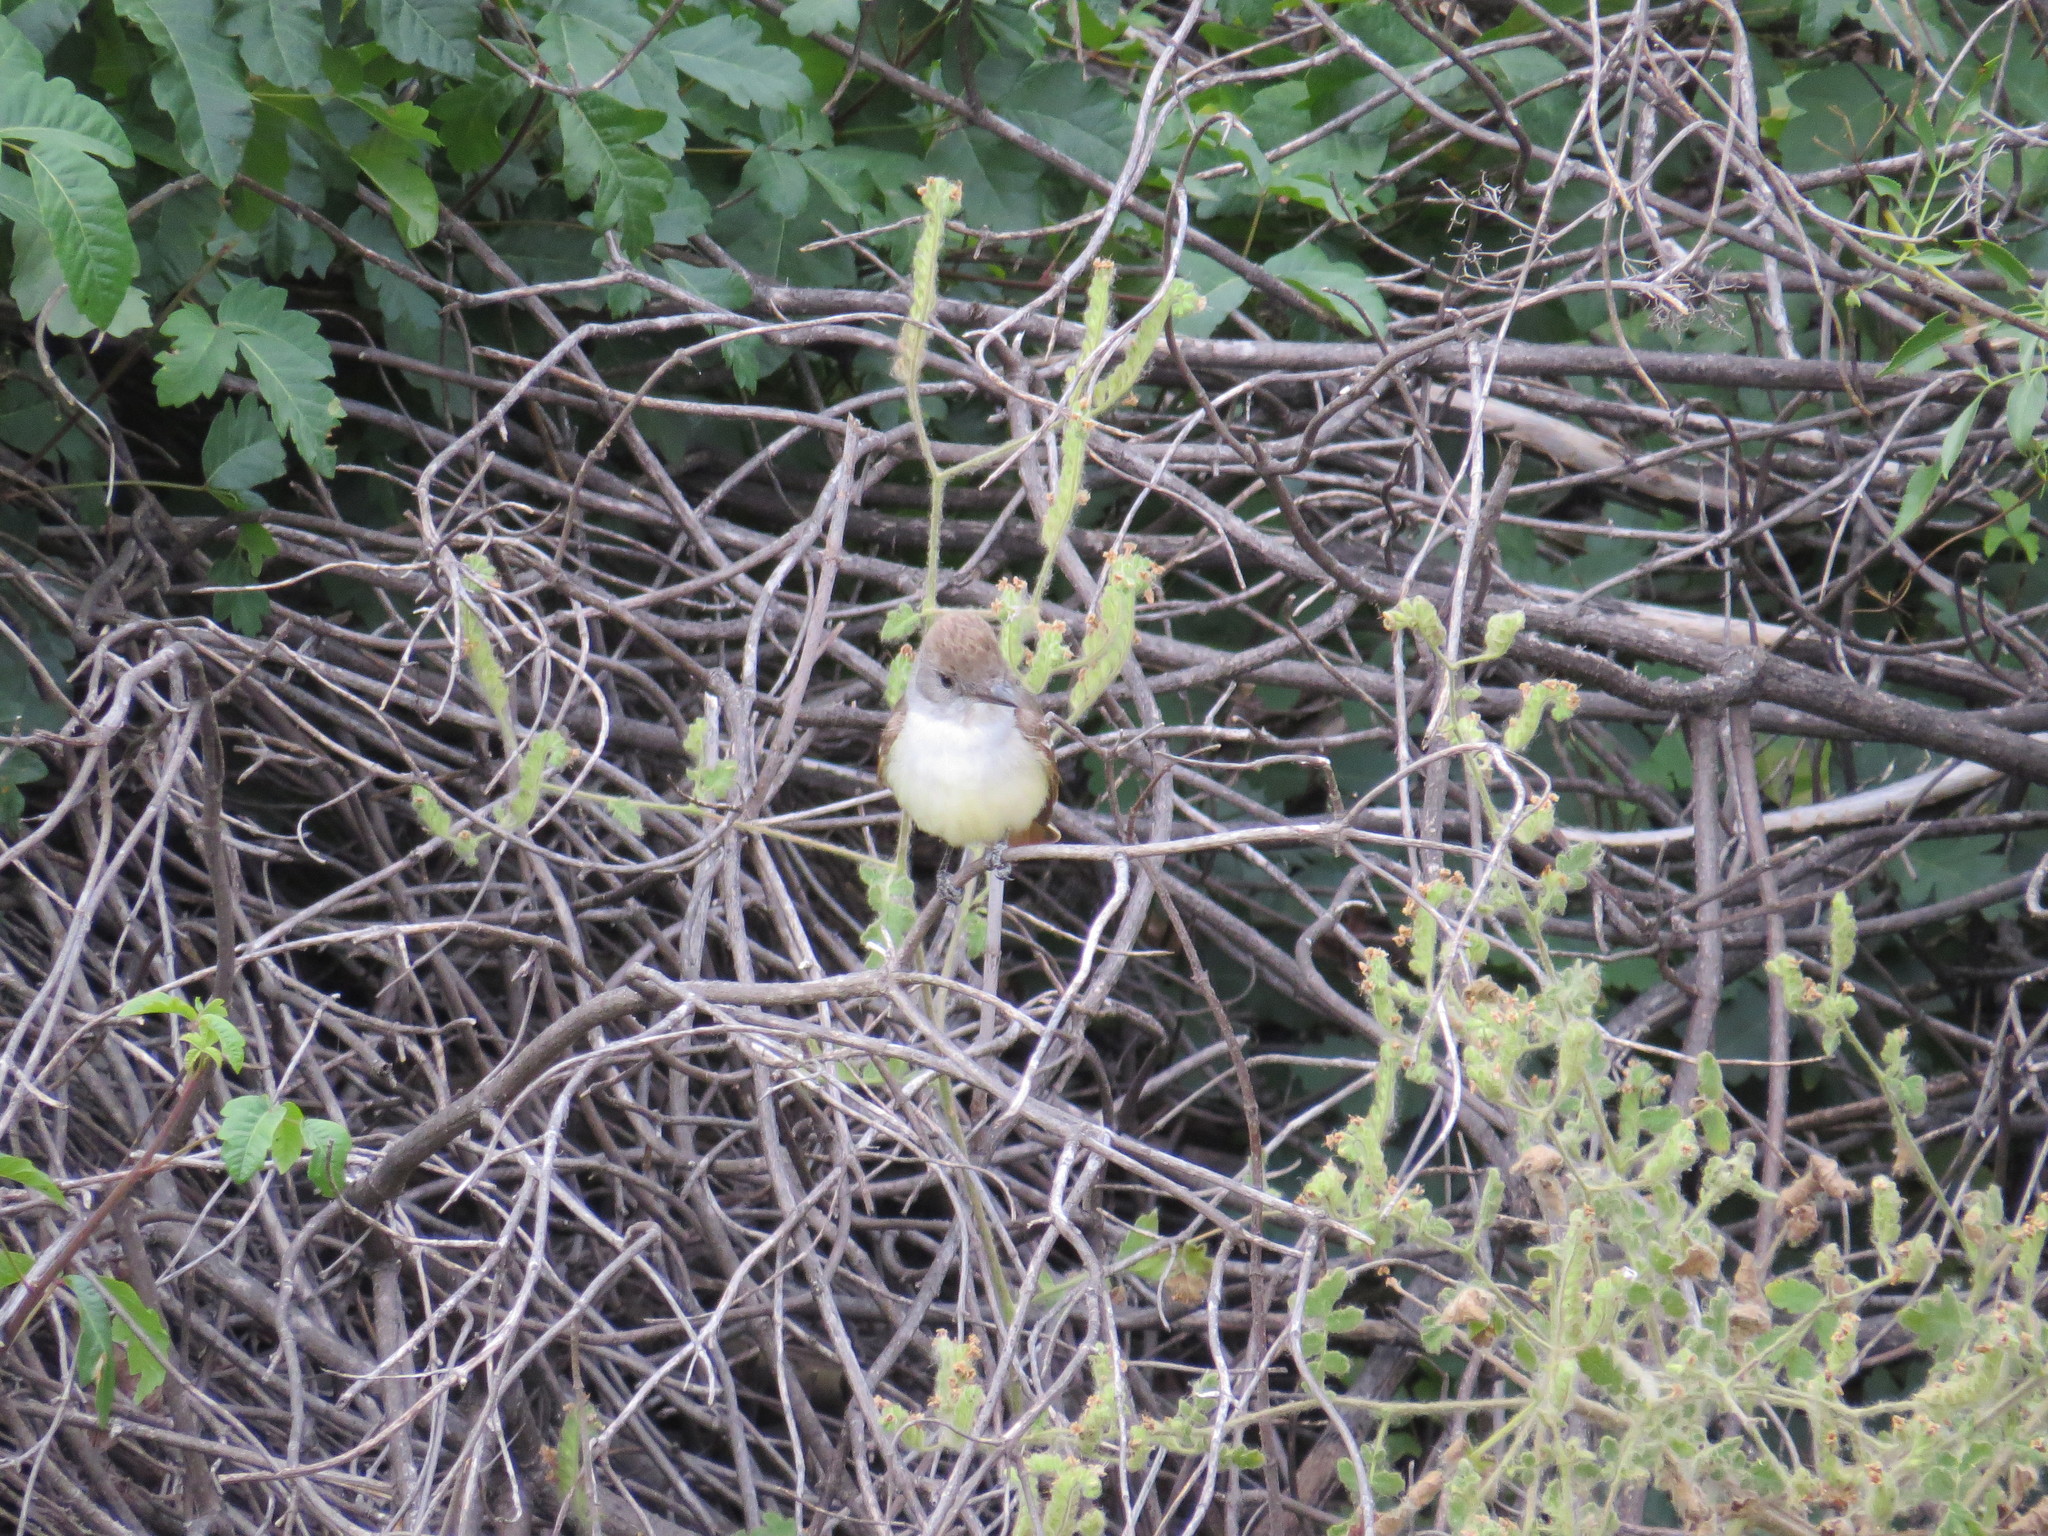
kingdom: Animalia
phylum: Chordata
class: Aves
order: Passeriformes
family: Tyrannidae
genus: Myiarchus
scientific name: Myiarchus cinerascens
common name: Ash-throated flycatcher
